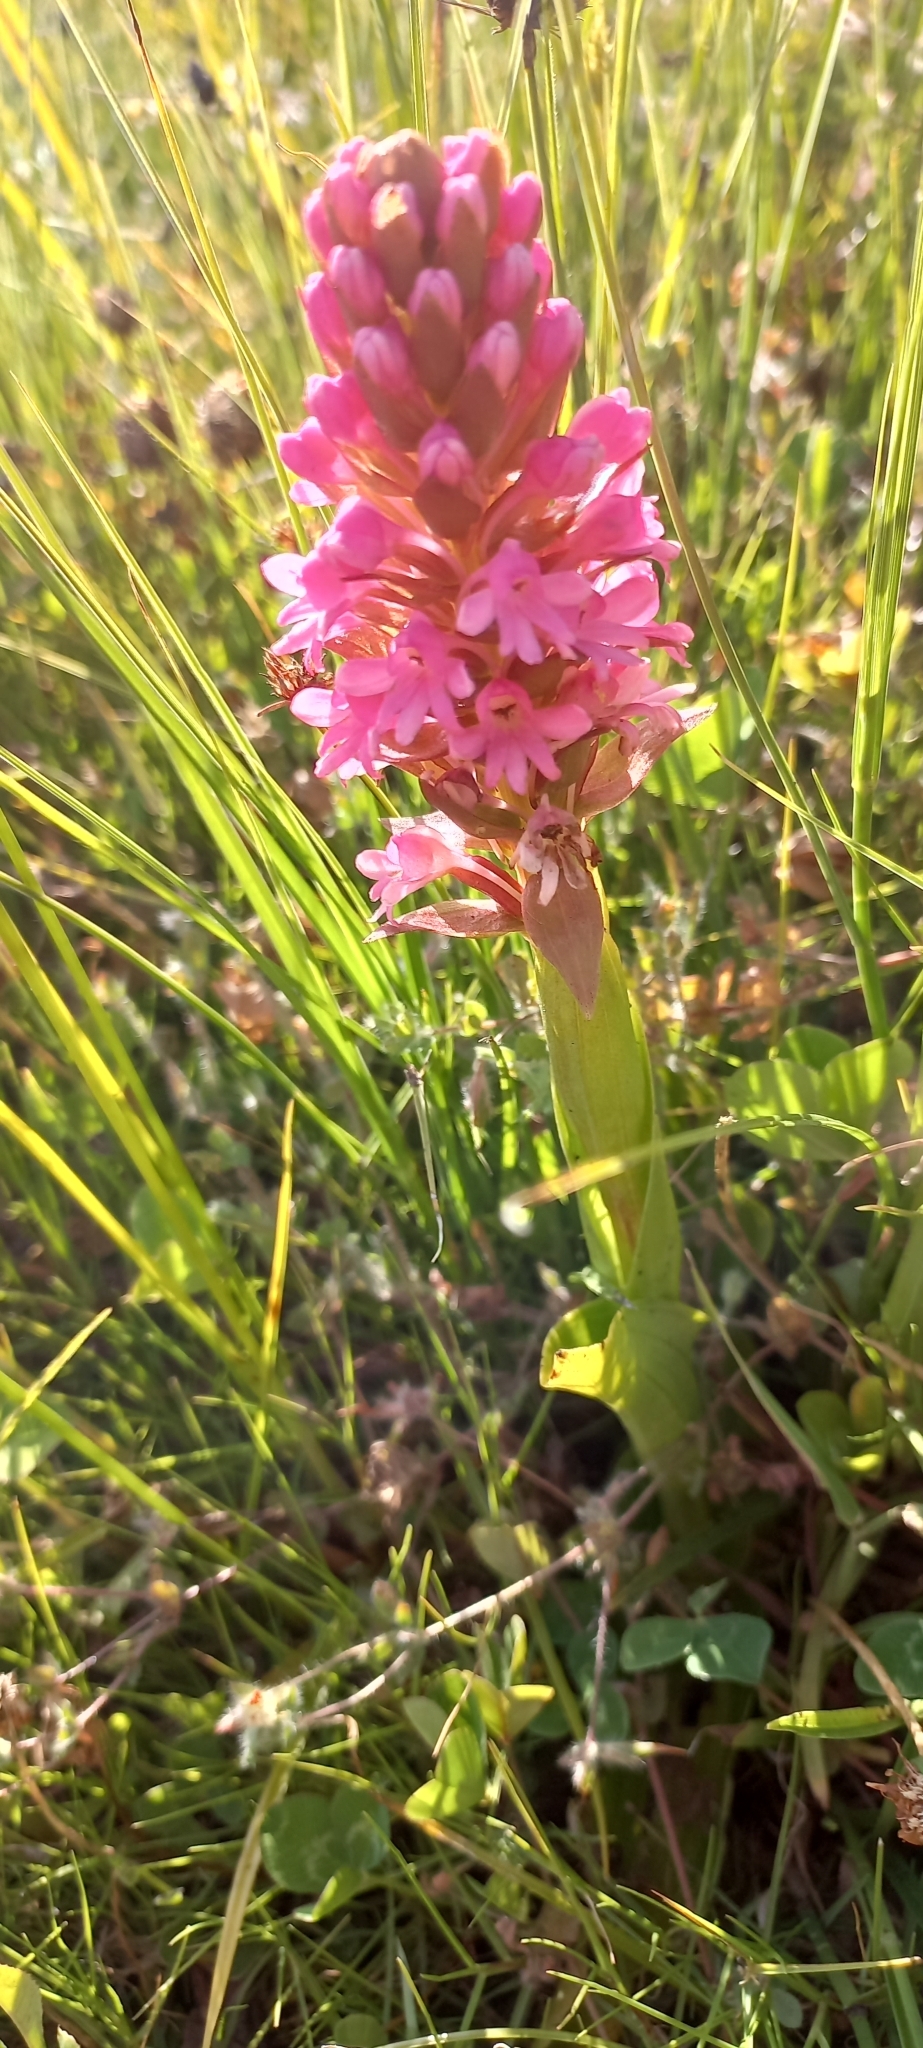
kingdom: Plantae
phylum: Tracheophyta
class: Liliopsida
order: Asparagales
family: Orchidaceae
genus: Satyrium
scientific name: Satyrium hallackii
